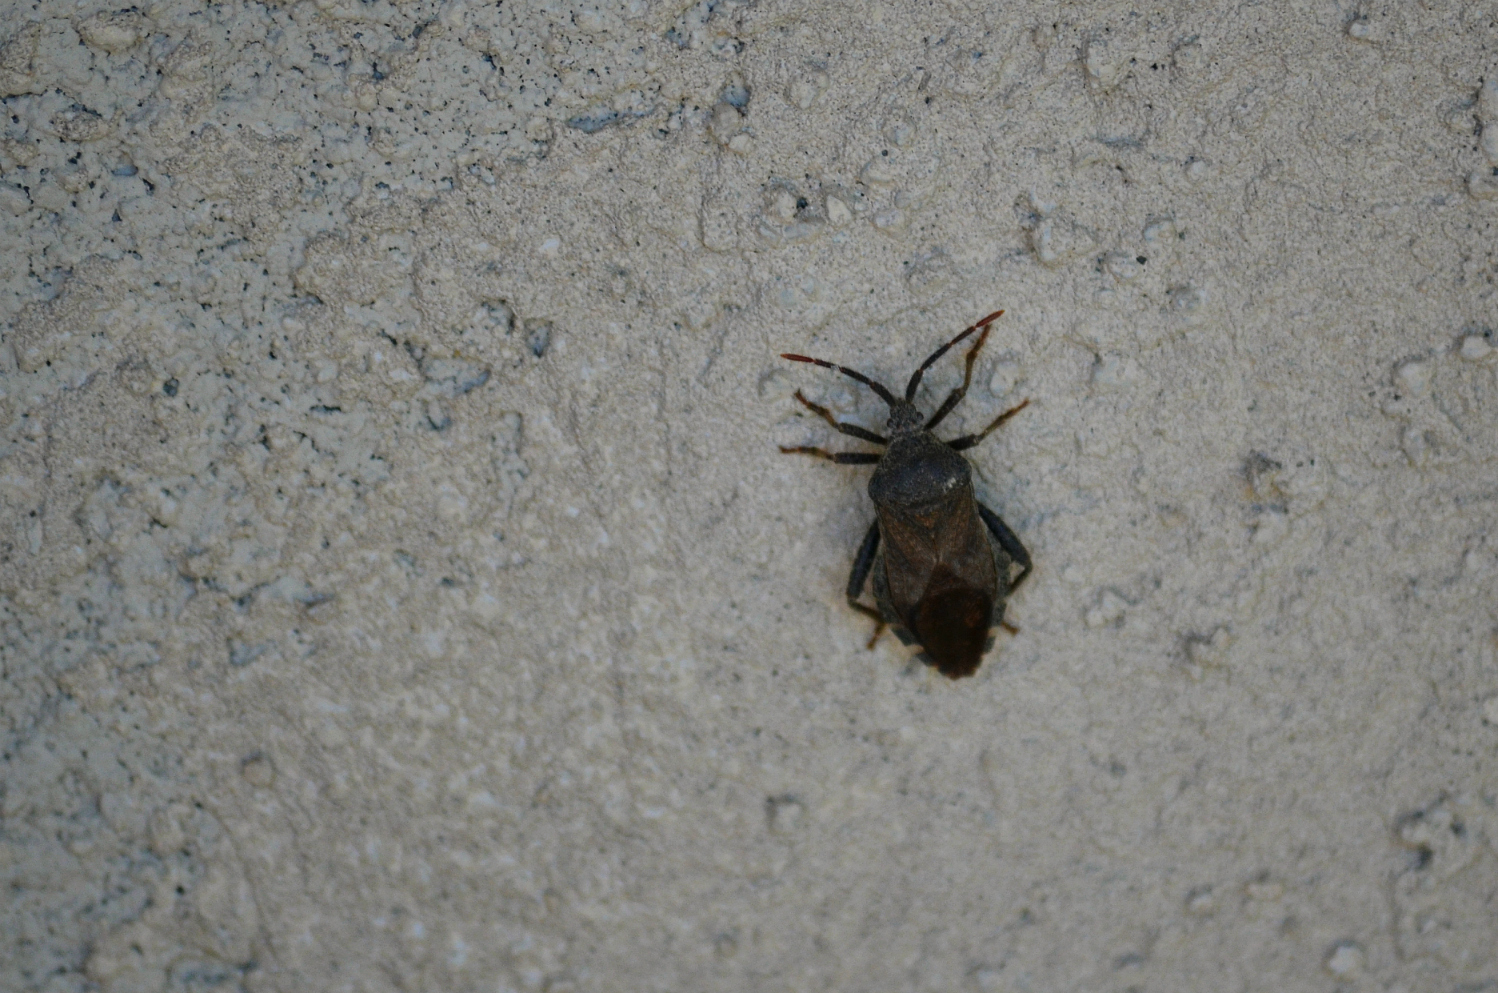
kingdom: Animalia
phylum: Arthropoda
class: Insecta
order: Hemiptera
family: Coreidae
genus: Piezogaster
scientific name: Piezogaster calcarator
